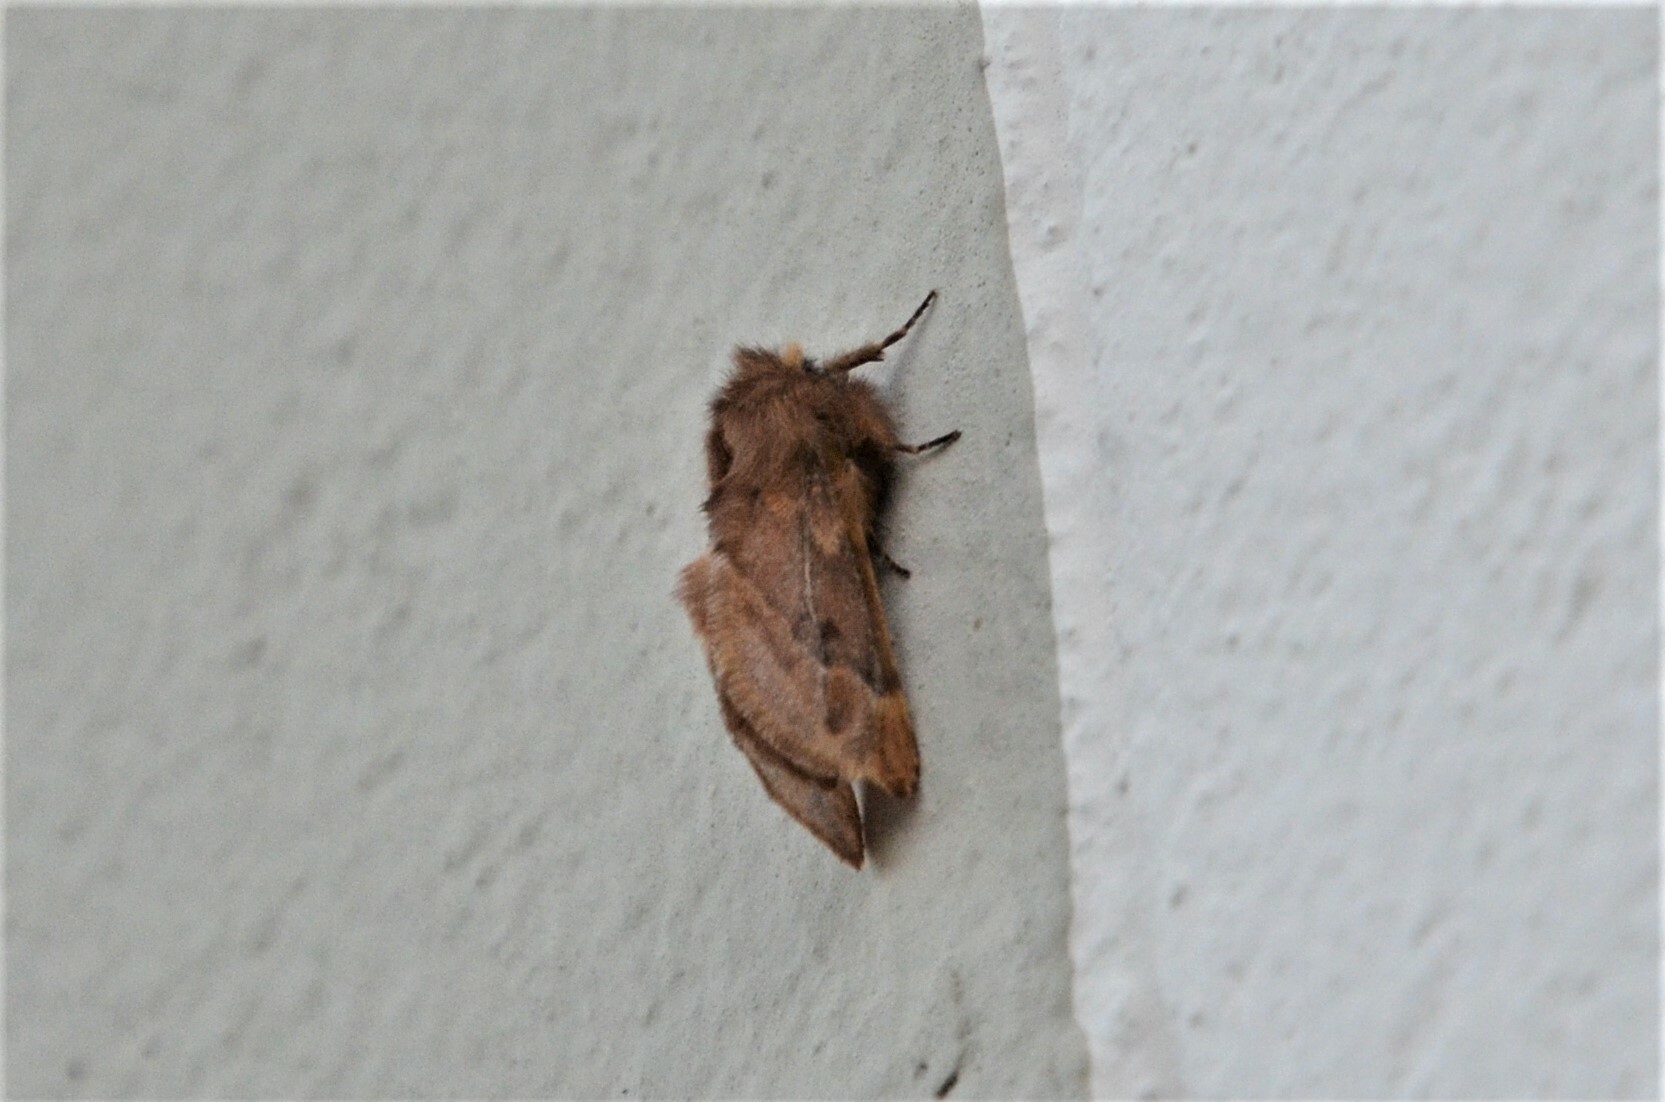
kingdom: Animalia
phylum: Arthropoda
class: Insecta
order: Lepidoptera
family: Notodontidae
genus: Ptilophora
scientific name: Ptilophora plumigera
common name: Plumed prominent
